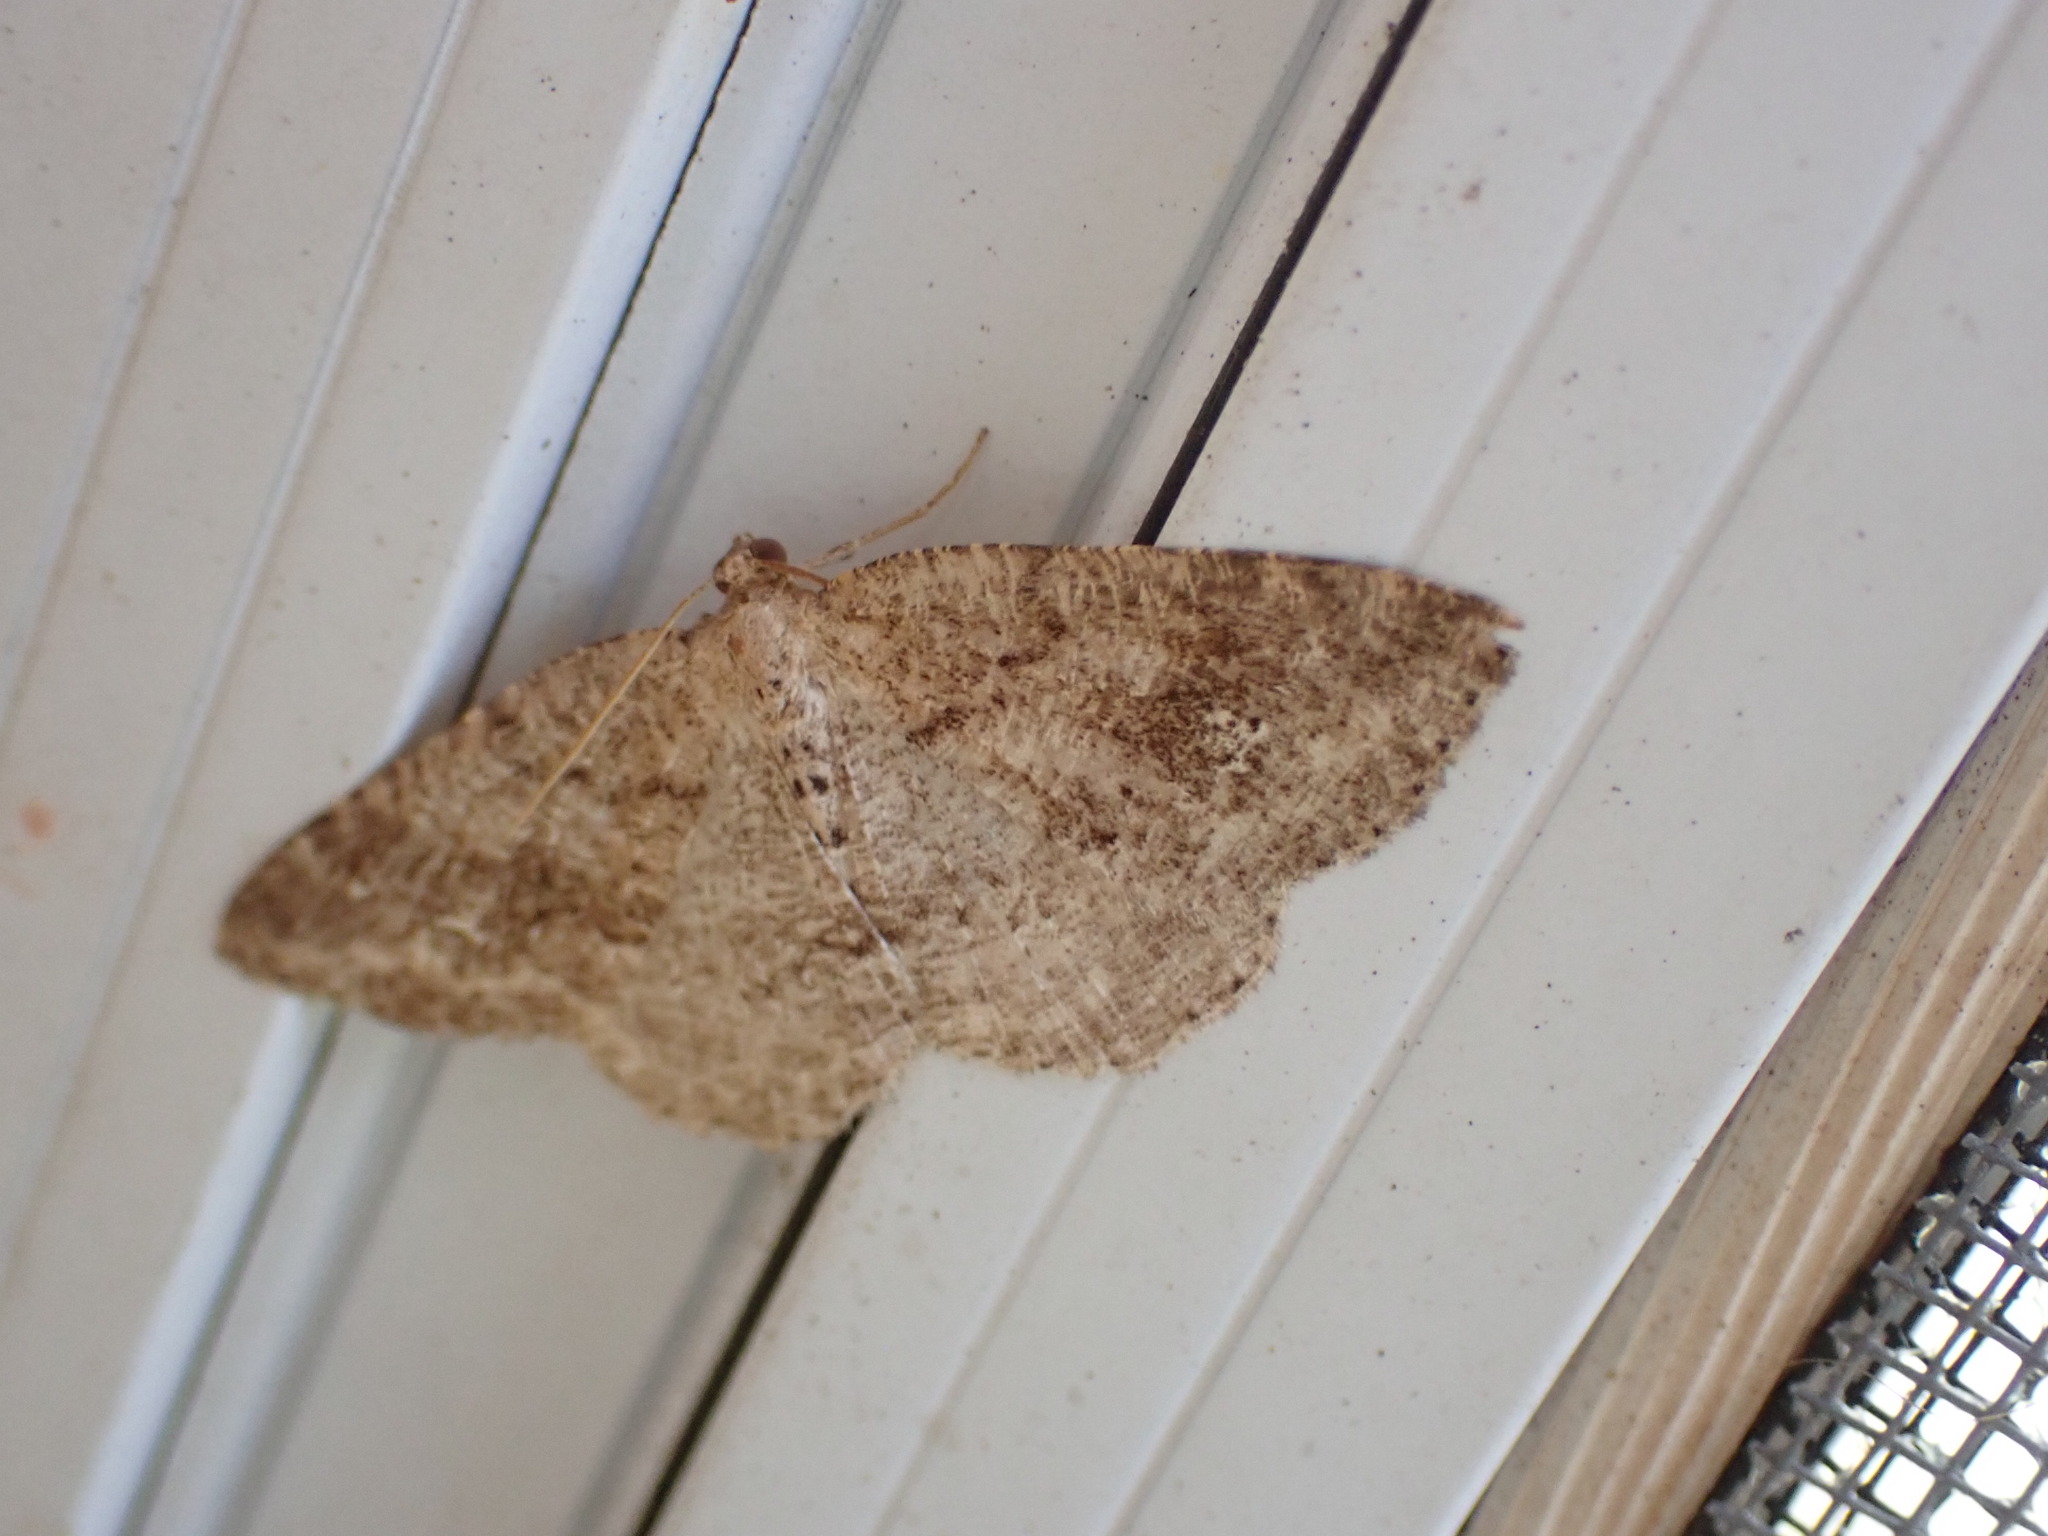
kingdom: Animalia
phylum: Arthropoda
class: Insecta
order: Lepidoptera
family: Geometridae
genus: Homochlodes
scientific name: Homochlodes fritillaria
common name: Pale homochlodes
